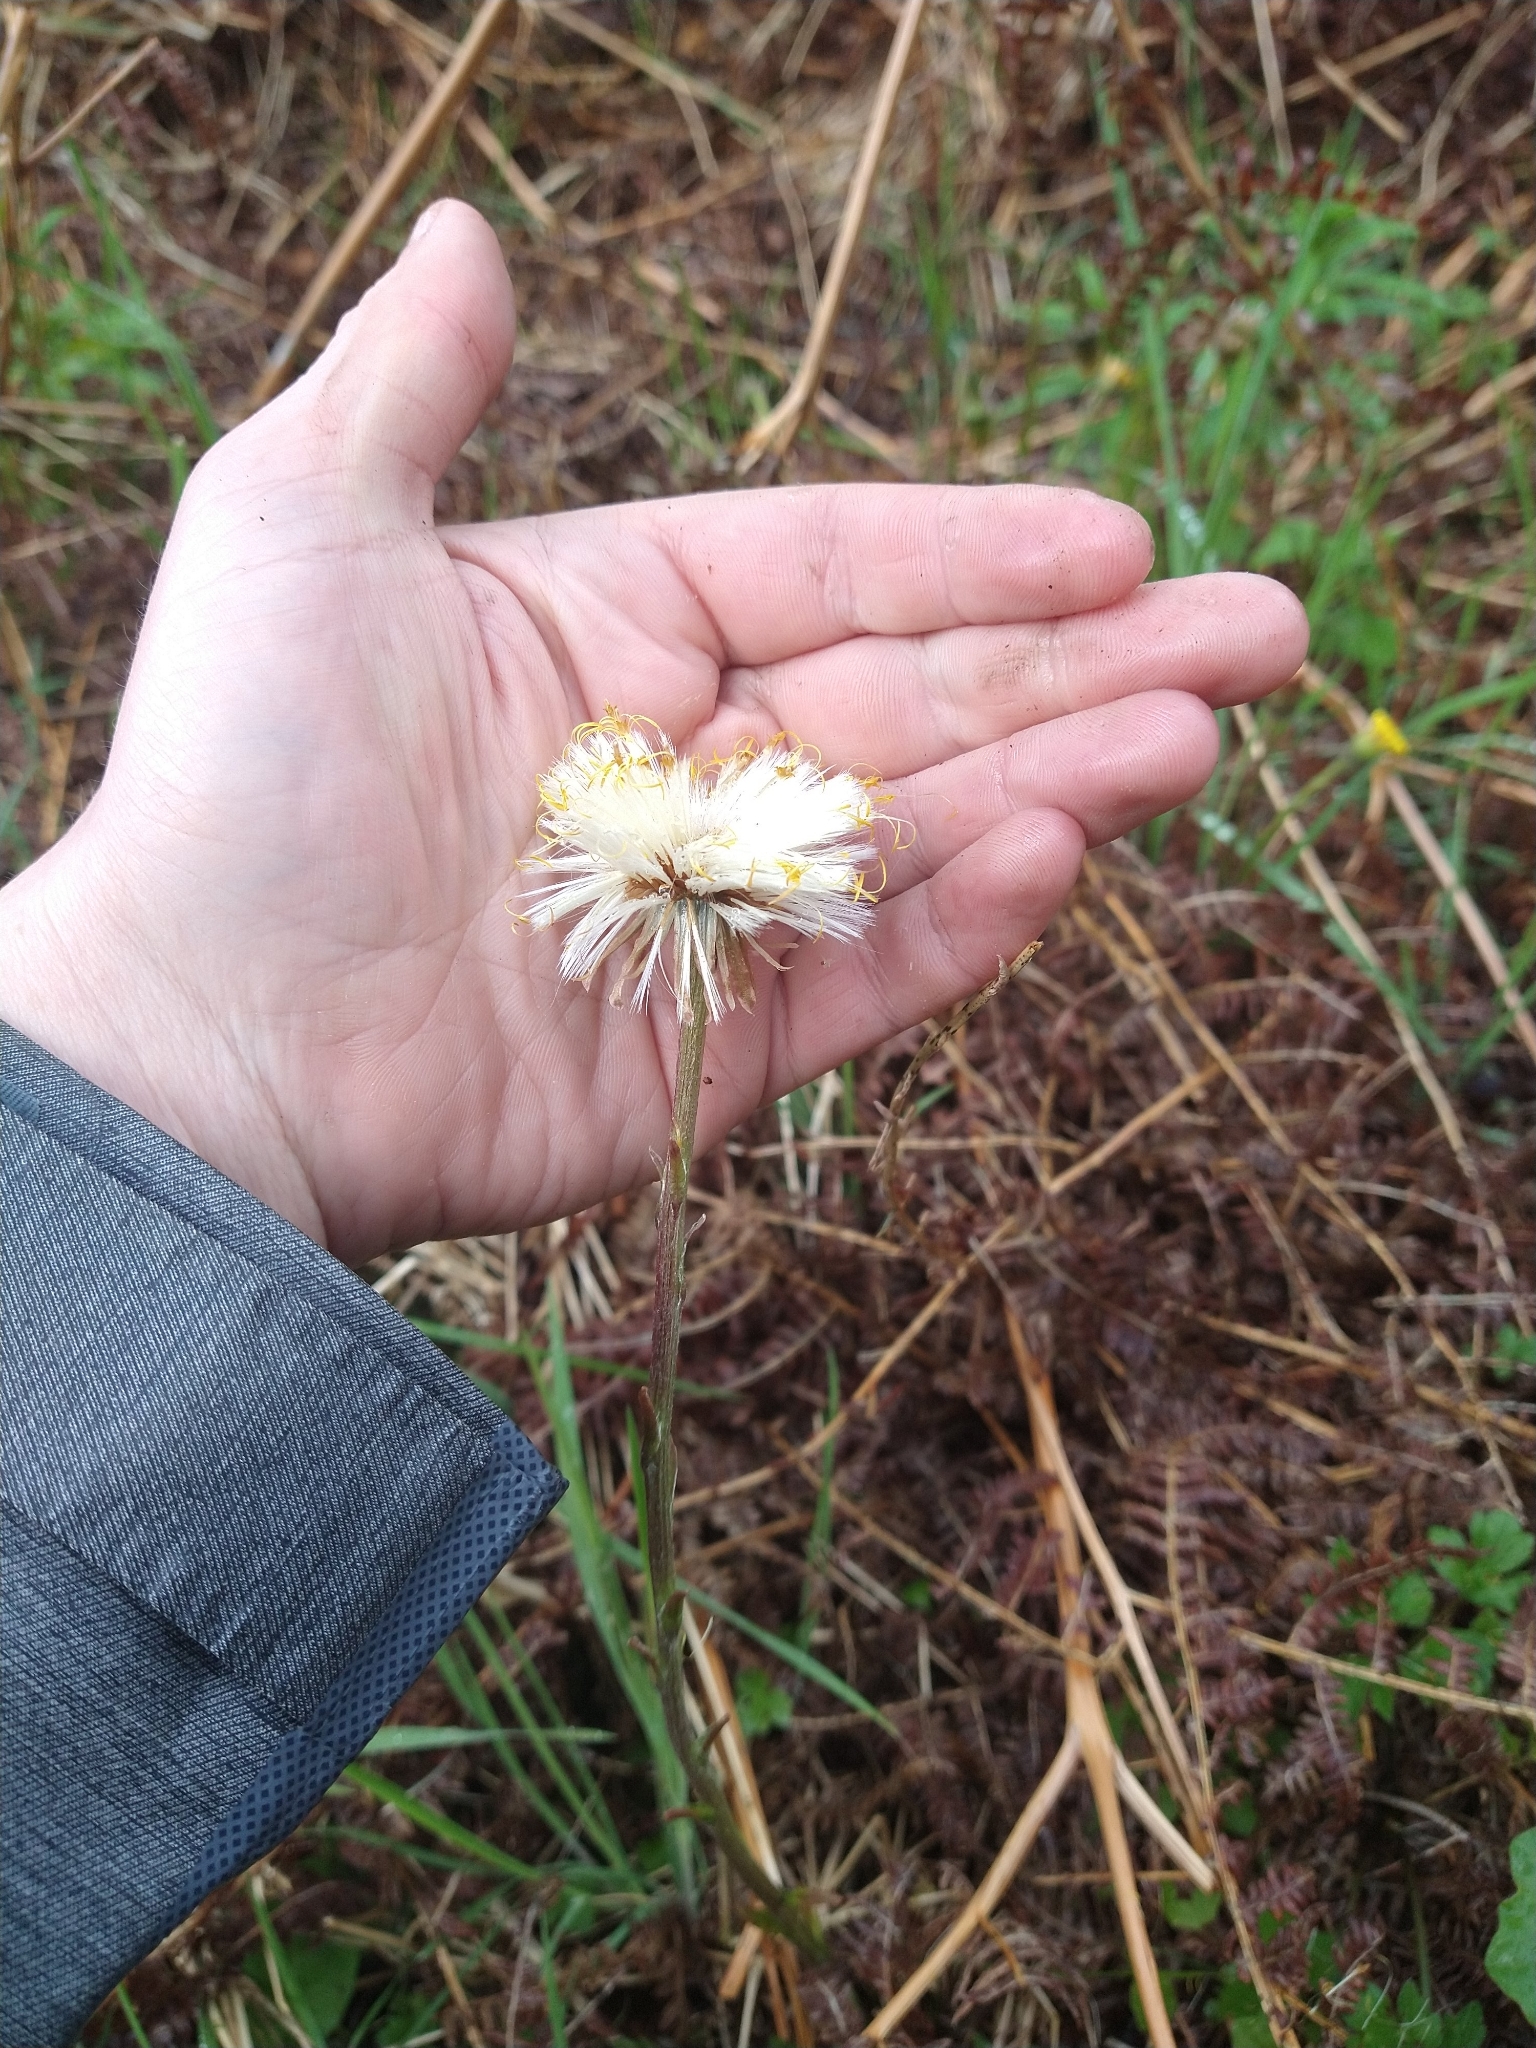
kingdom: Plantae
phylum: Tracheophyta
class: Magnoliopsida
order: Asterales
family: Asteraceae
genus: Tussilago
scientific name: Tussilago farfara
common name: Coltsfoot
